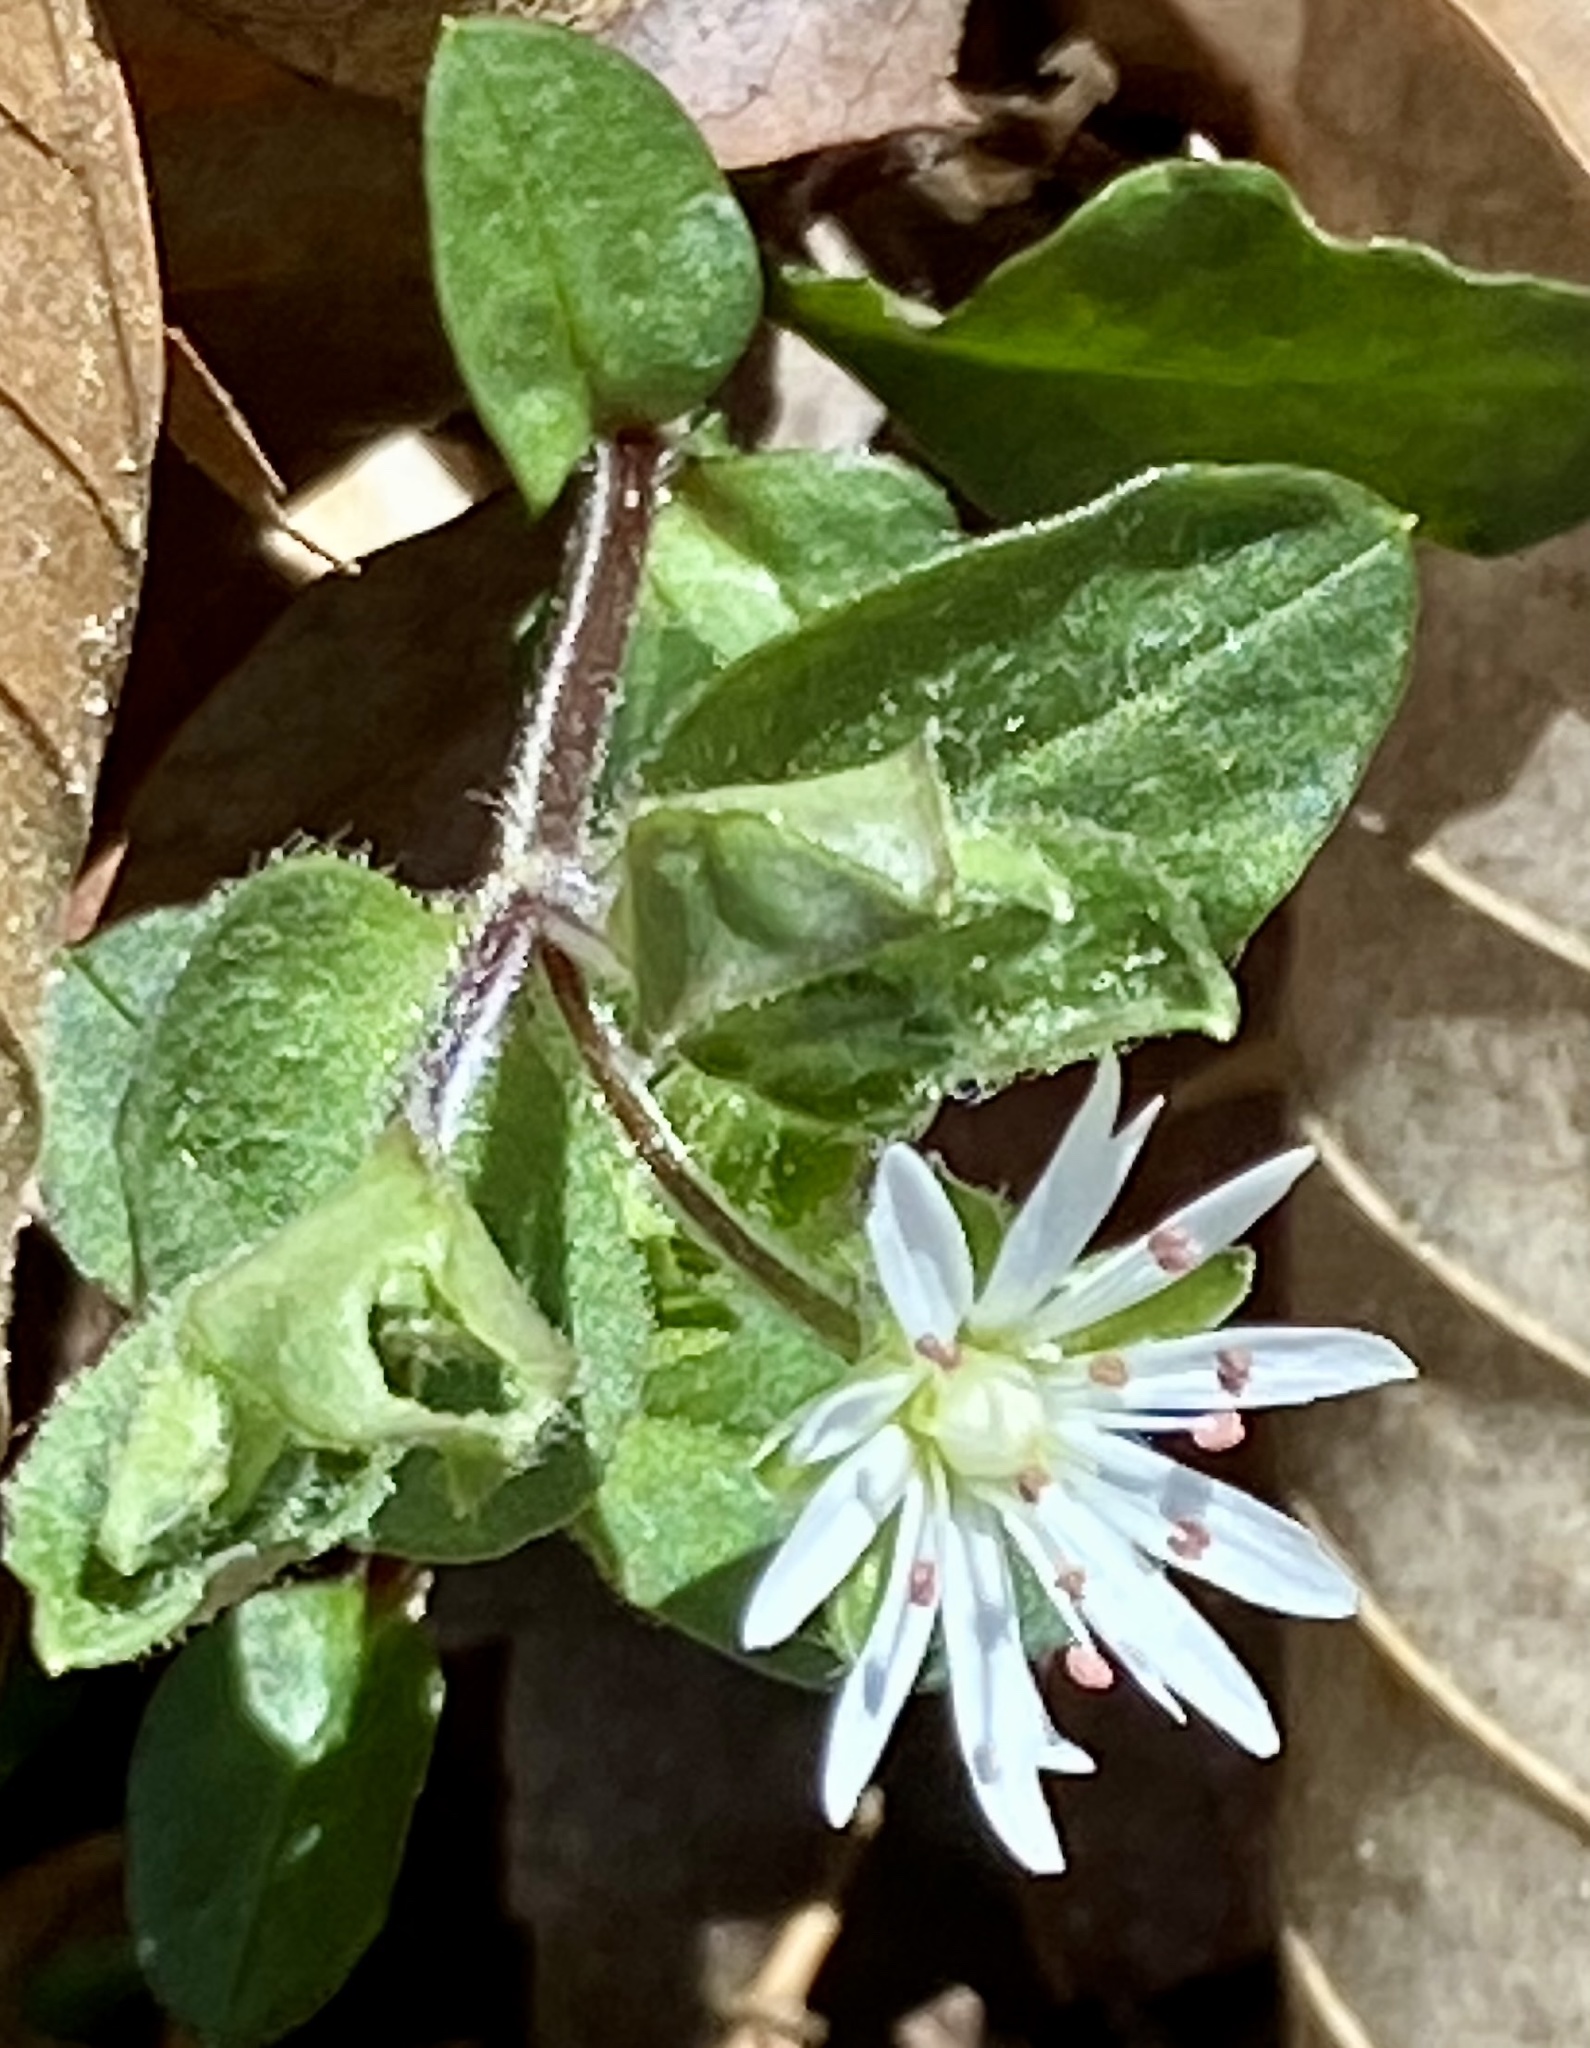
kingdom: Plantae
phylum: Tracheophyta
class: Magnoliopsida
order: Caryophyllales
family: Caryophyllaceae
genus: Stellaria
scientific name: Stellaria pubera
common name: Star chickweed
